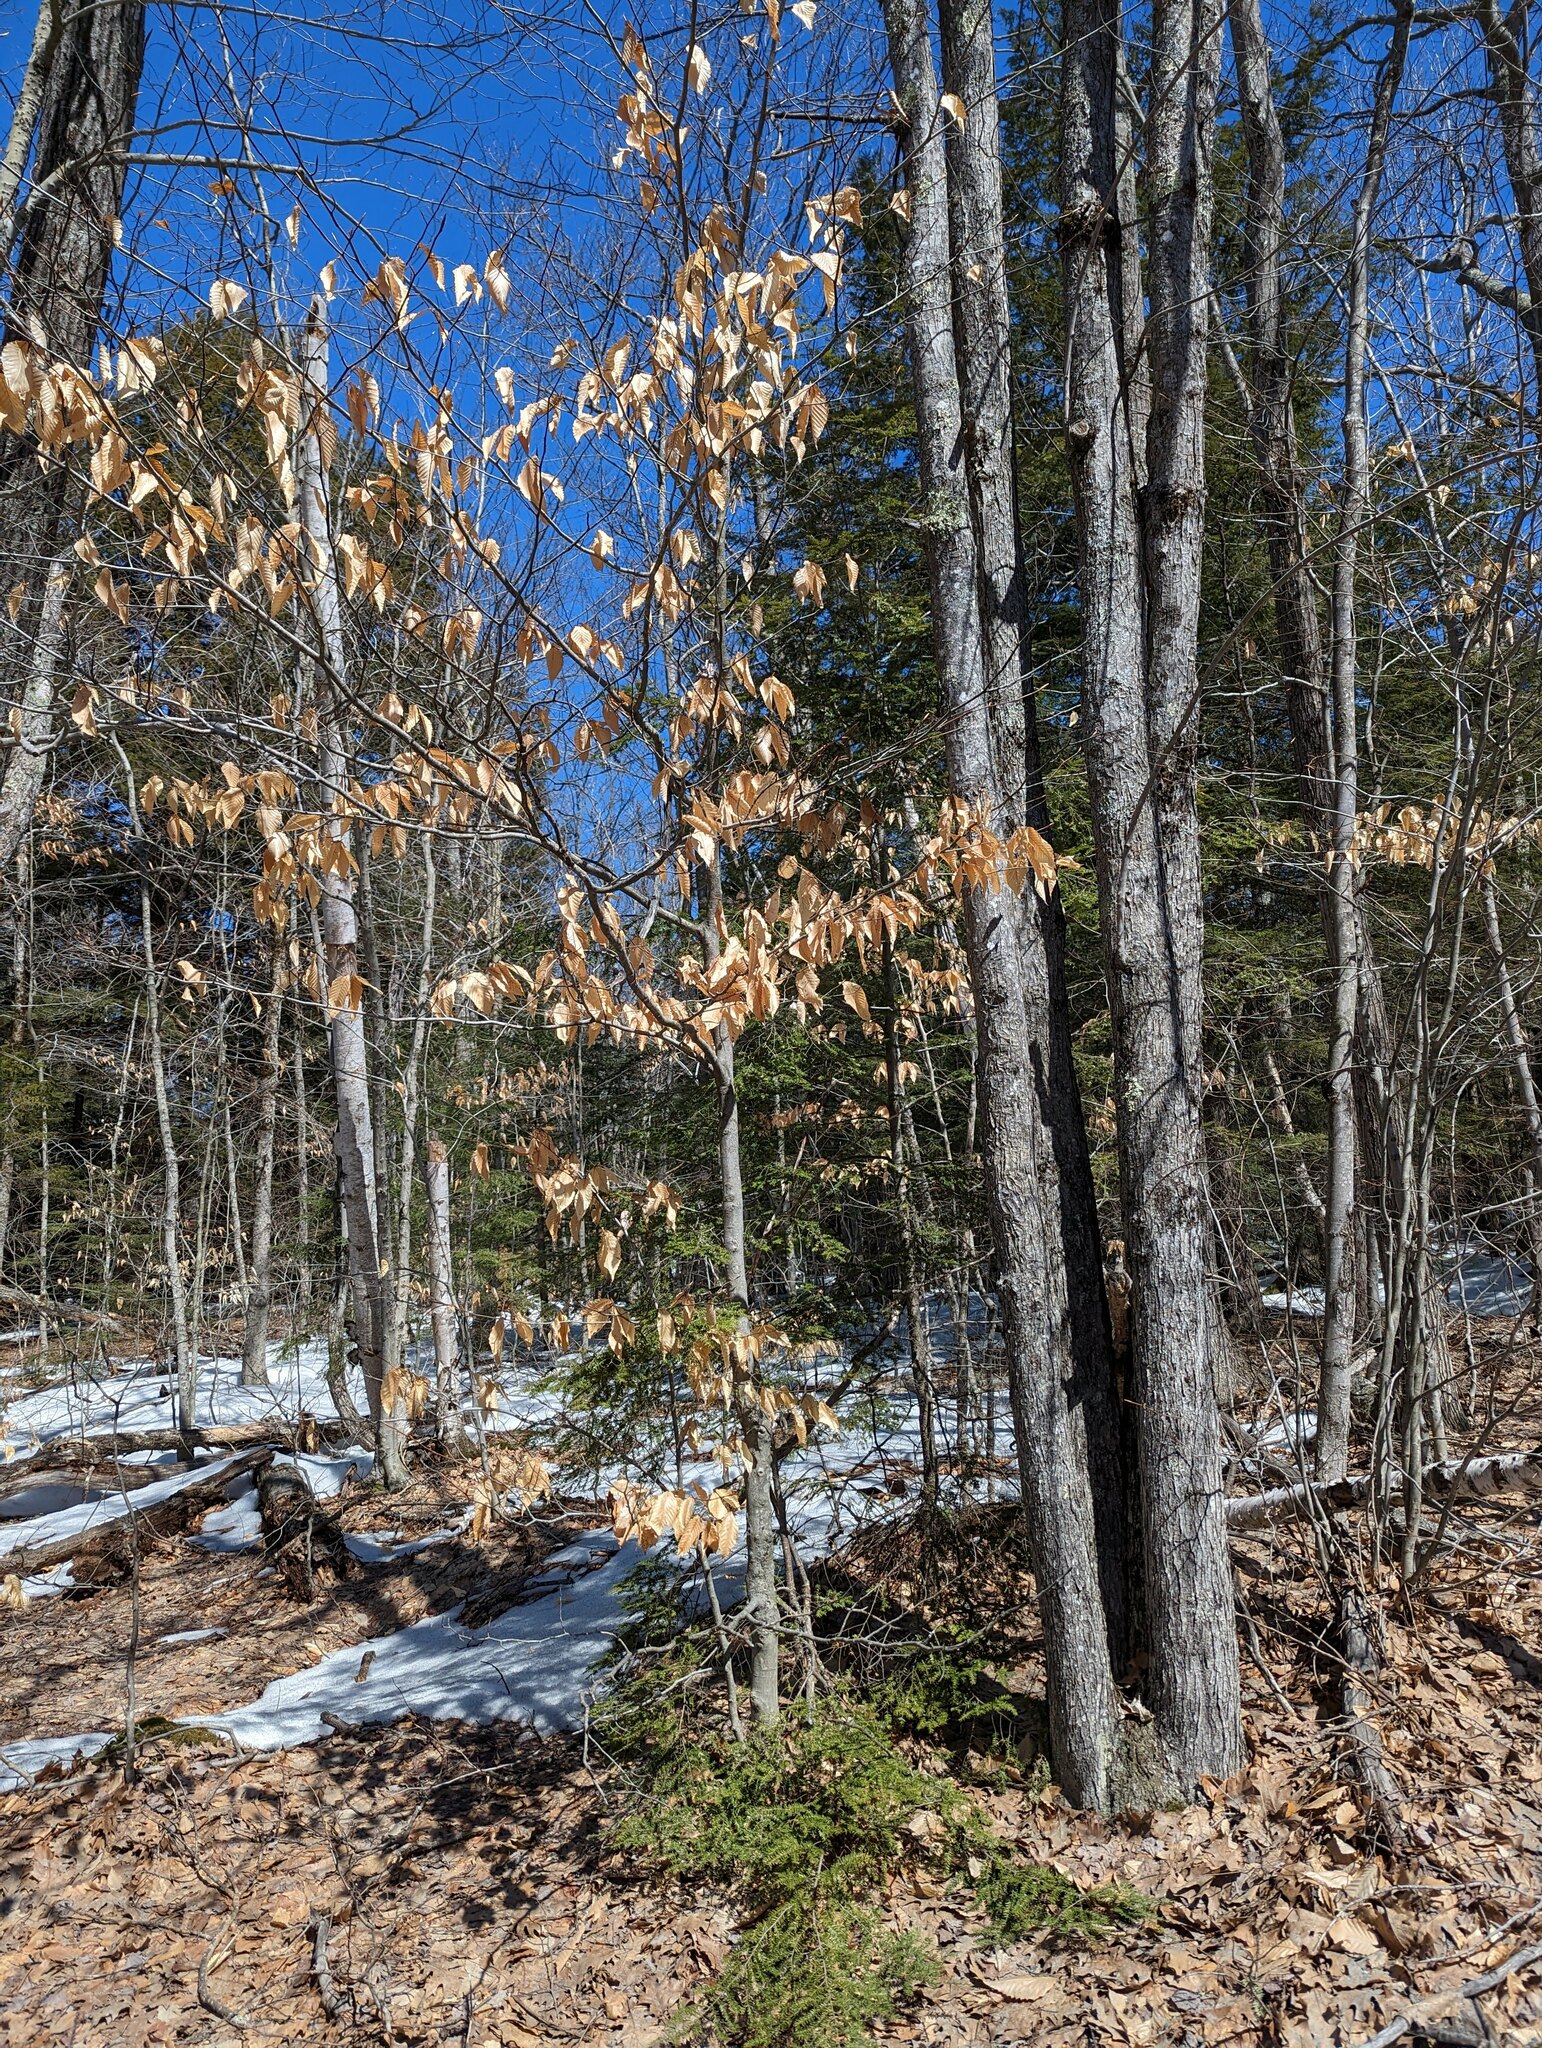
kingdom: Plantae
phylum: Tracheophyta
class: Magnoliopsida
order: Fagales
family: Fagaceae
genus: Fagus
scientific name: Fagus grandifolia
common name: American beech
